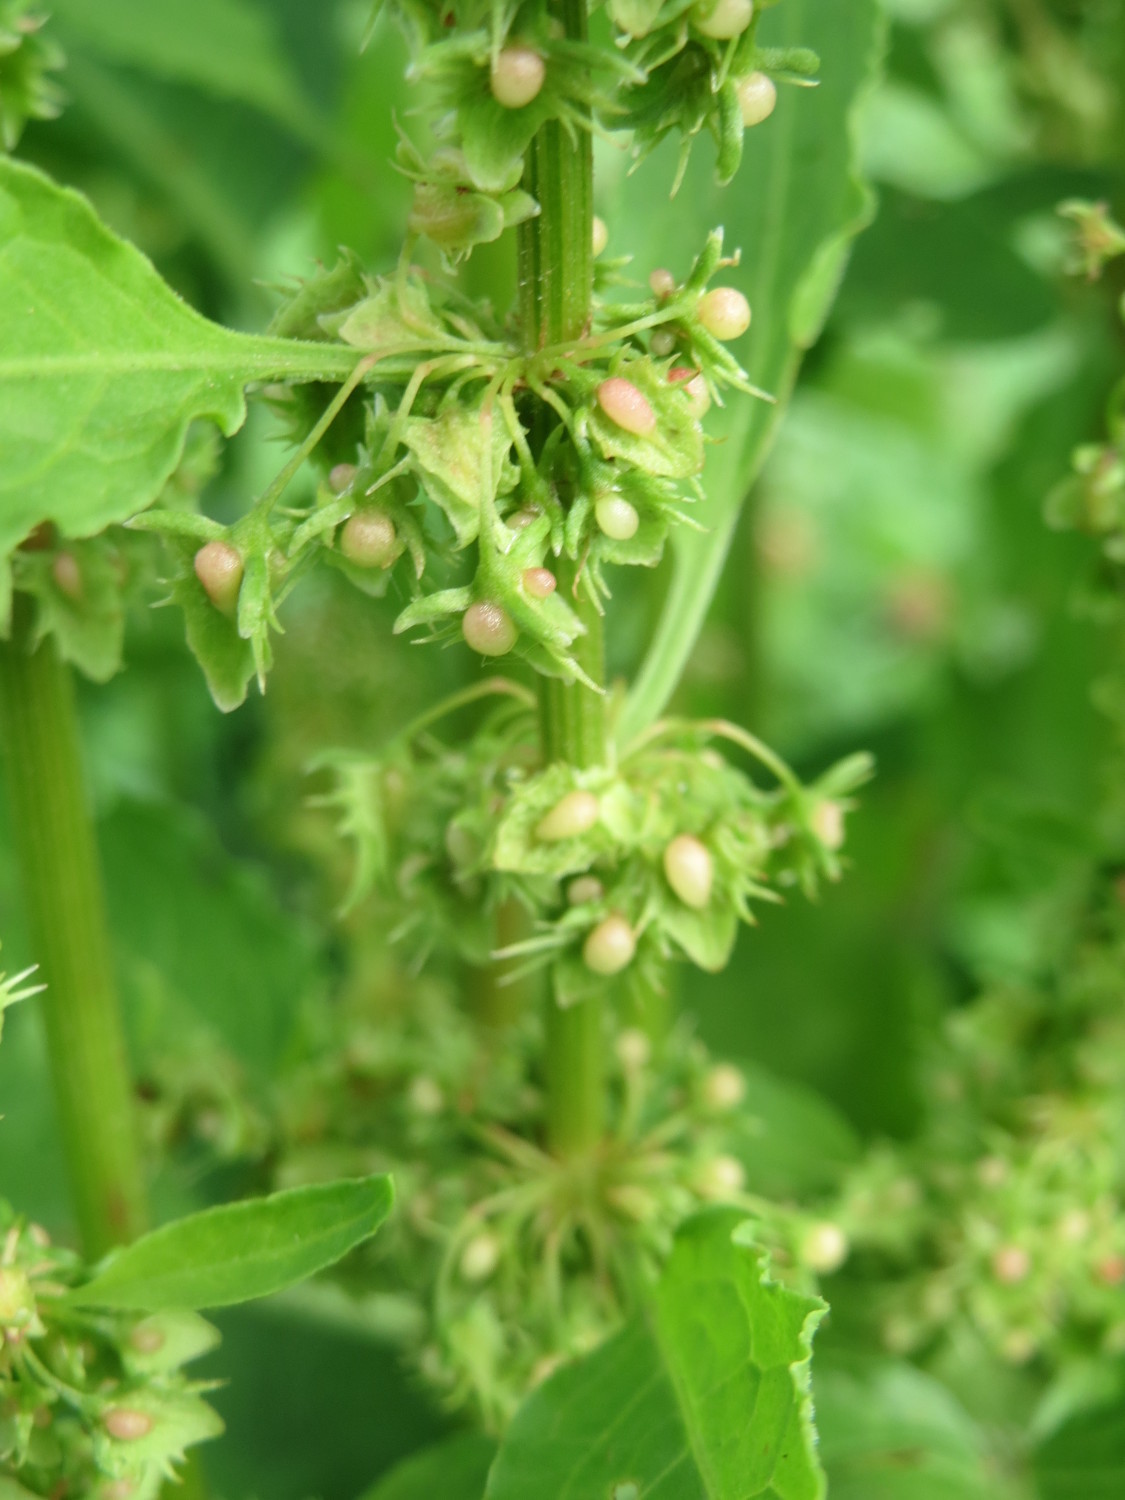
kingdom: Plantae
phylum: Tracheophyta
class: Magnoliopsida
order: Caryophyllales
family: Polygonaceae
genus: Rumex
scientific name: Rumex obtusifolius
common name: Bitter dock
